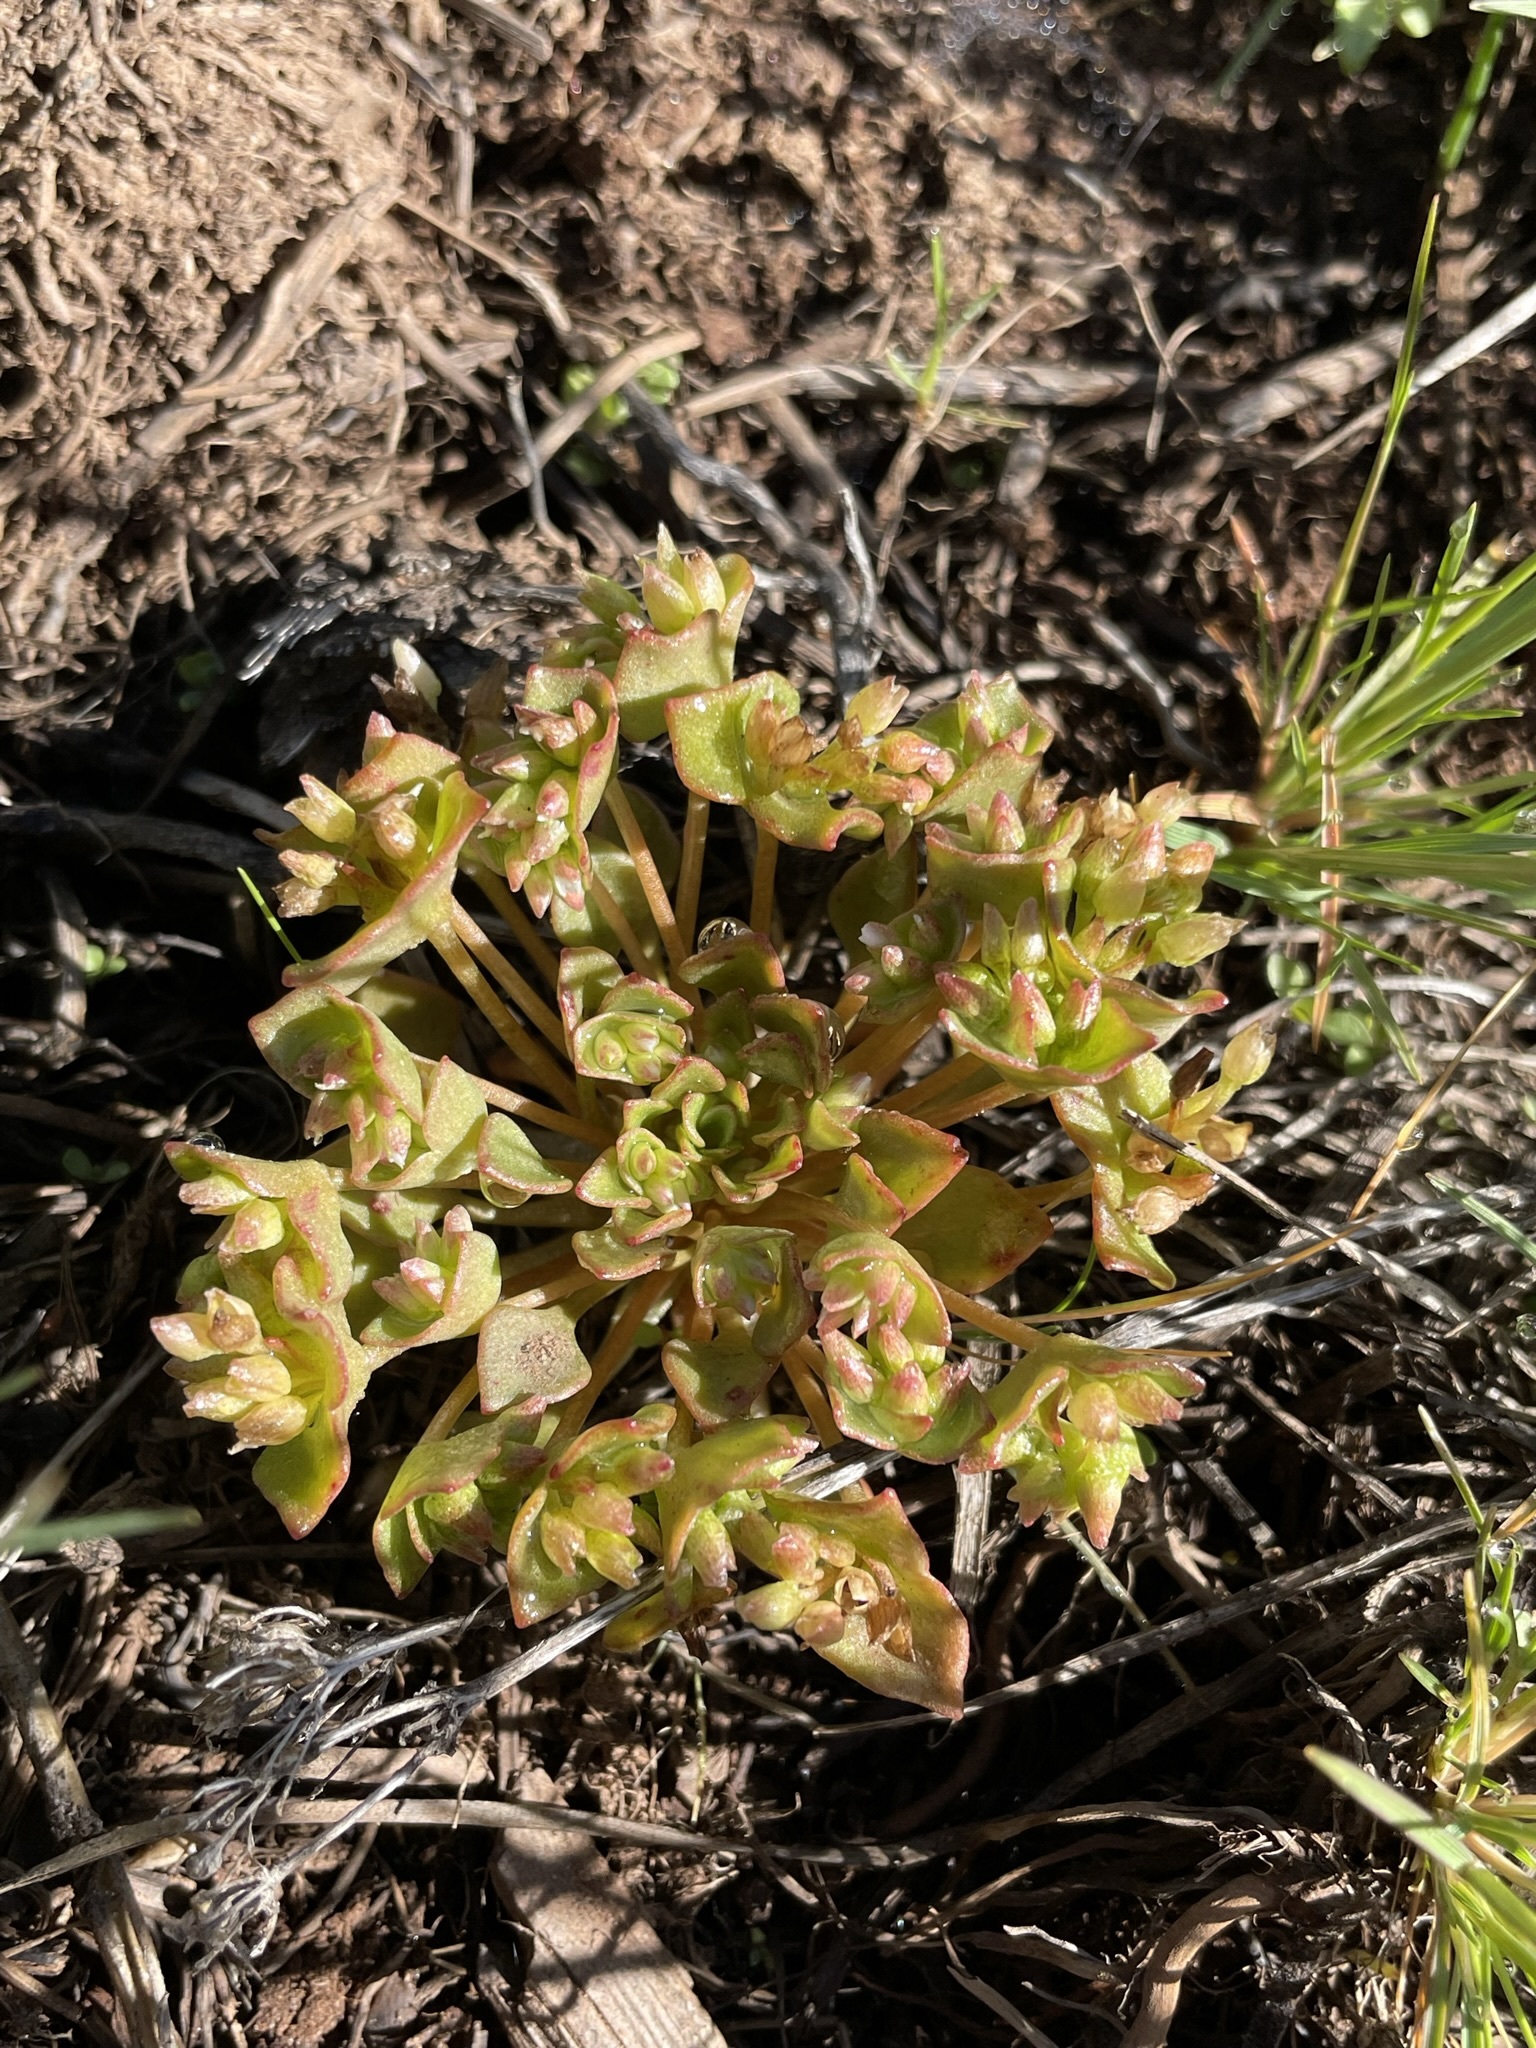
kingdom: Plantae
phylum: Tracheophyta
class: Magnoliopsida
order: Caryophyllales
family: Montiaceae
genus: Claytonia
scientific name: Claytonia rubra
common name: Erubescent miner's-lettuce
